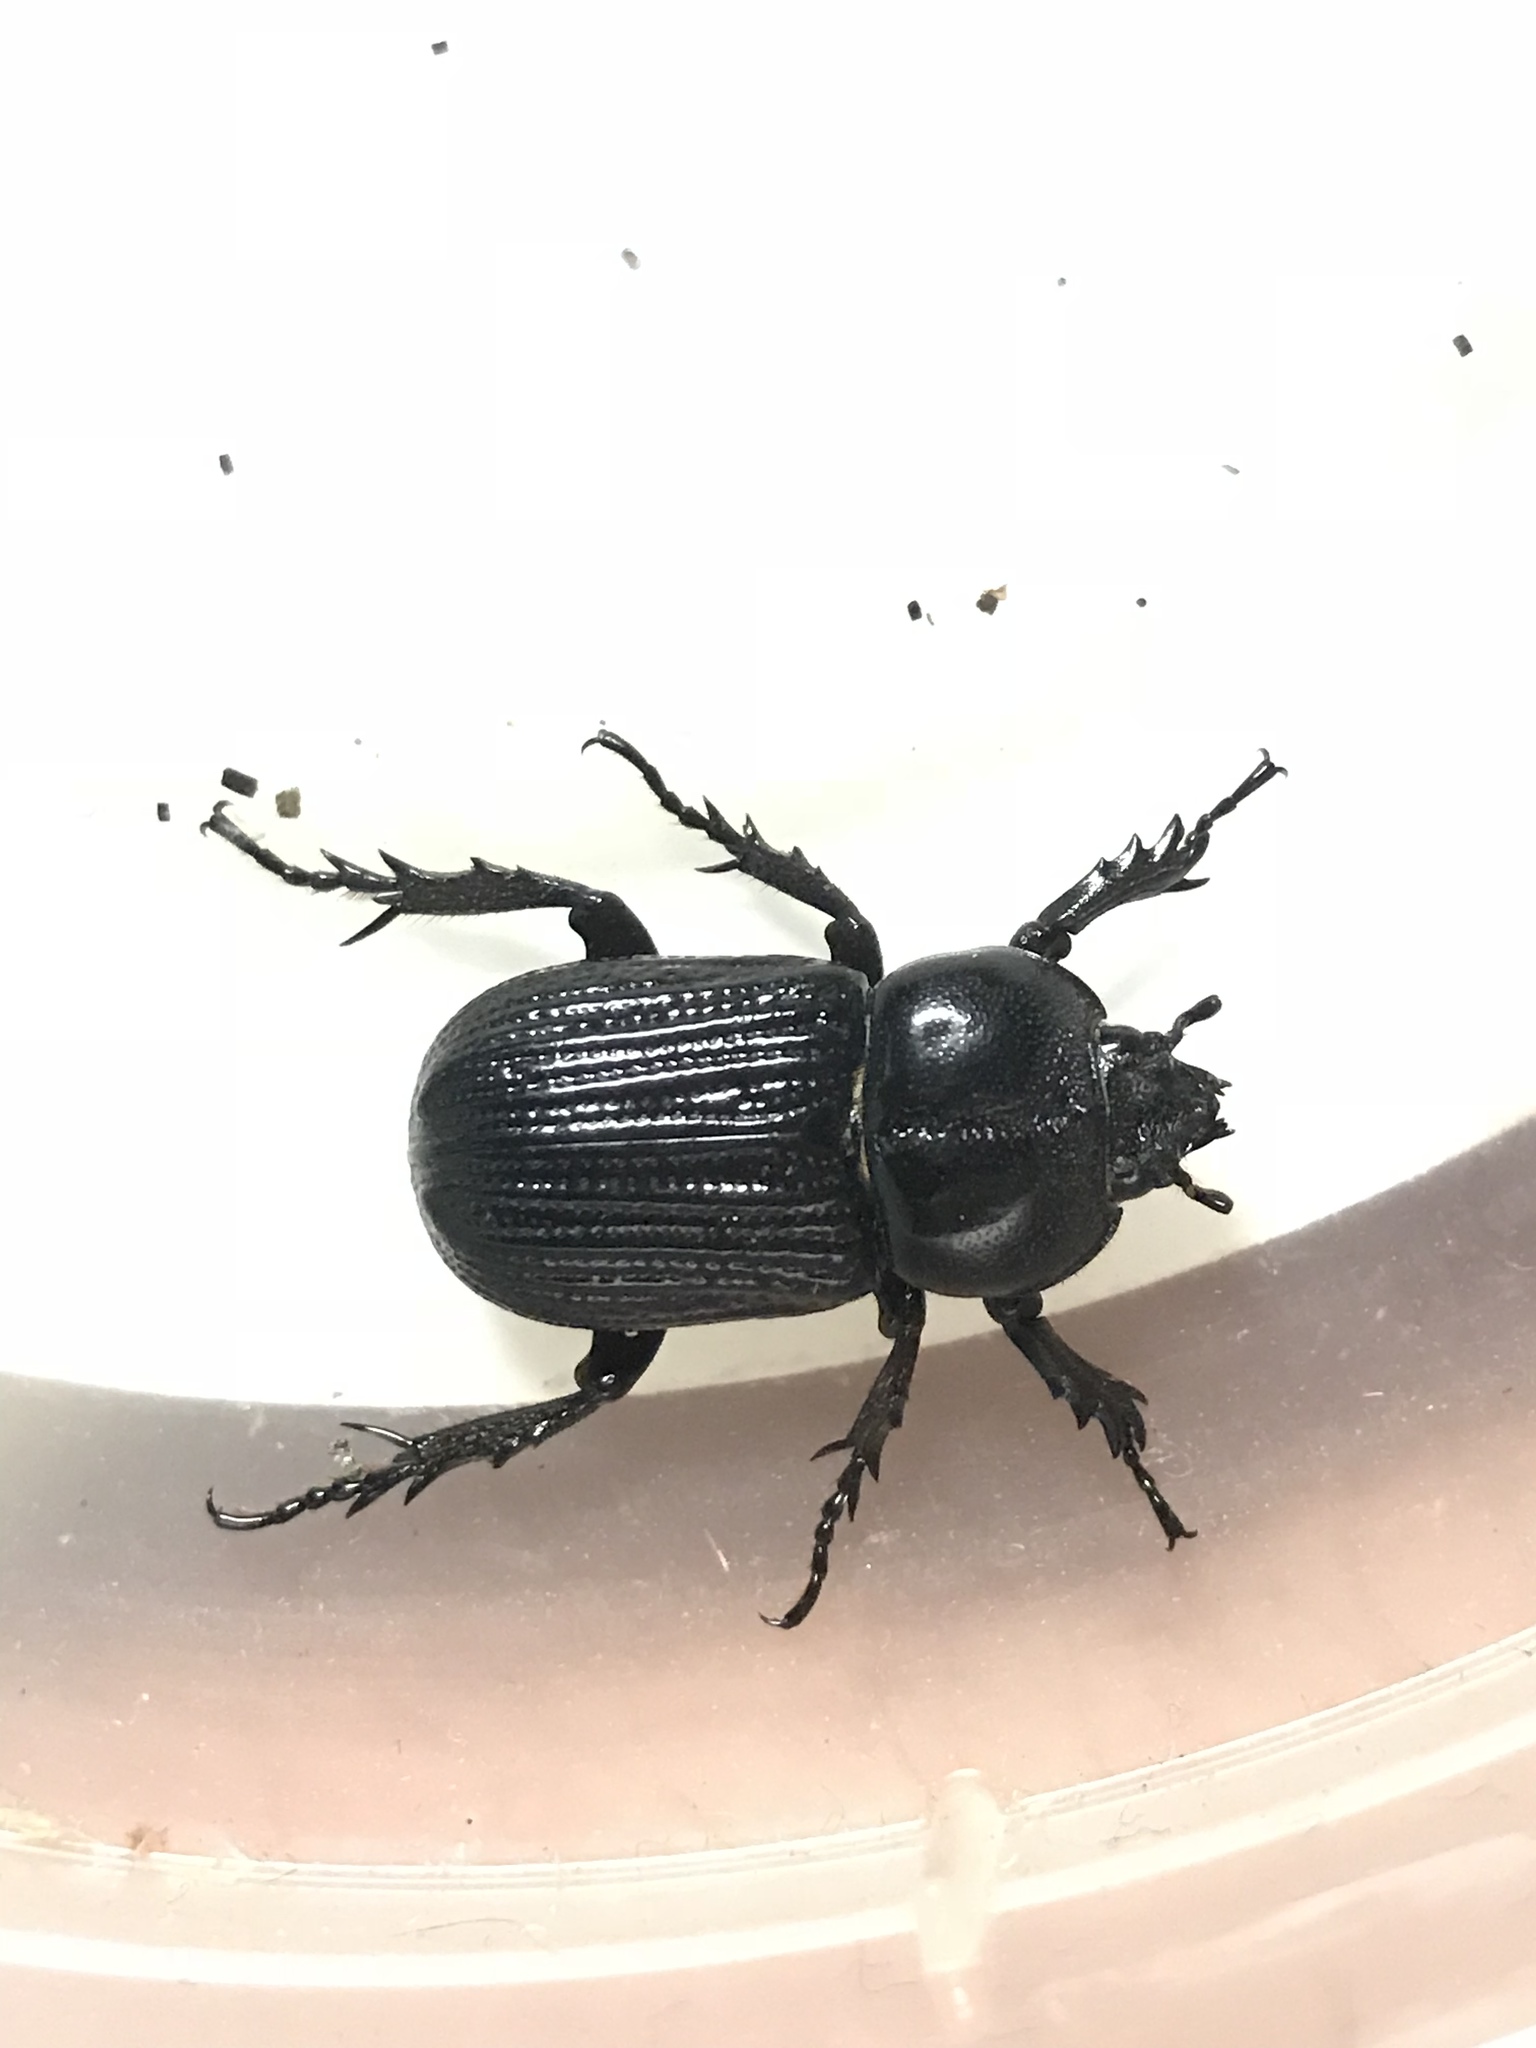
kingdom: Animalia
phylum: Arthropoda
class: Insecta
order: Coleoptera
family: Scarabaeidae
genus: Phileurus
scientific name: Phileurus valgus
